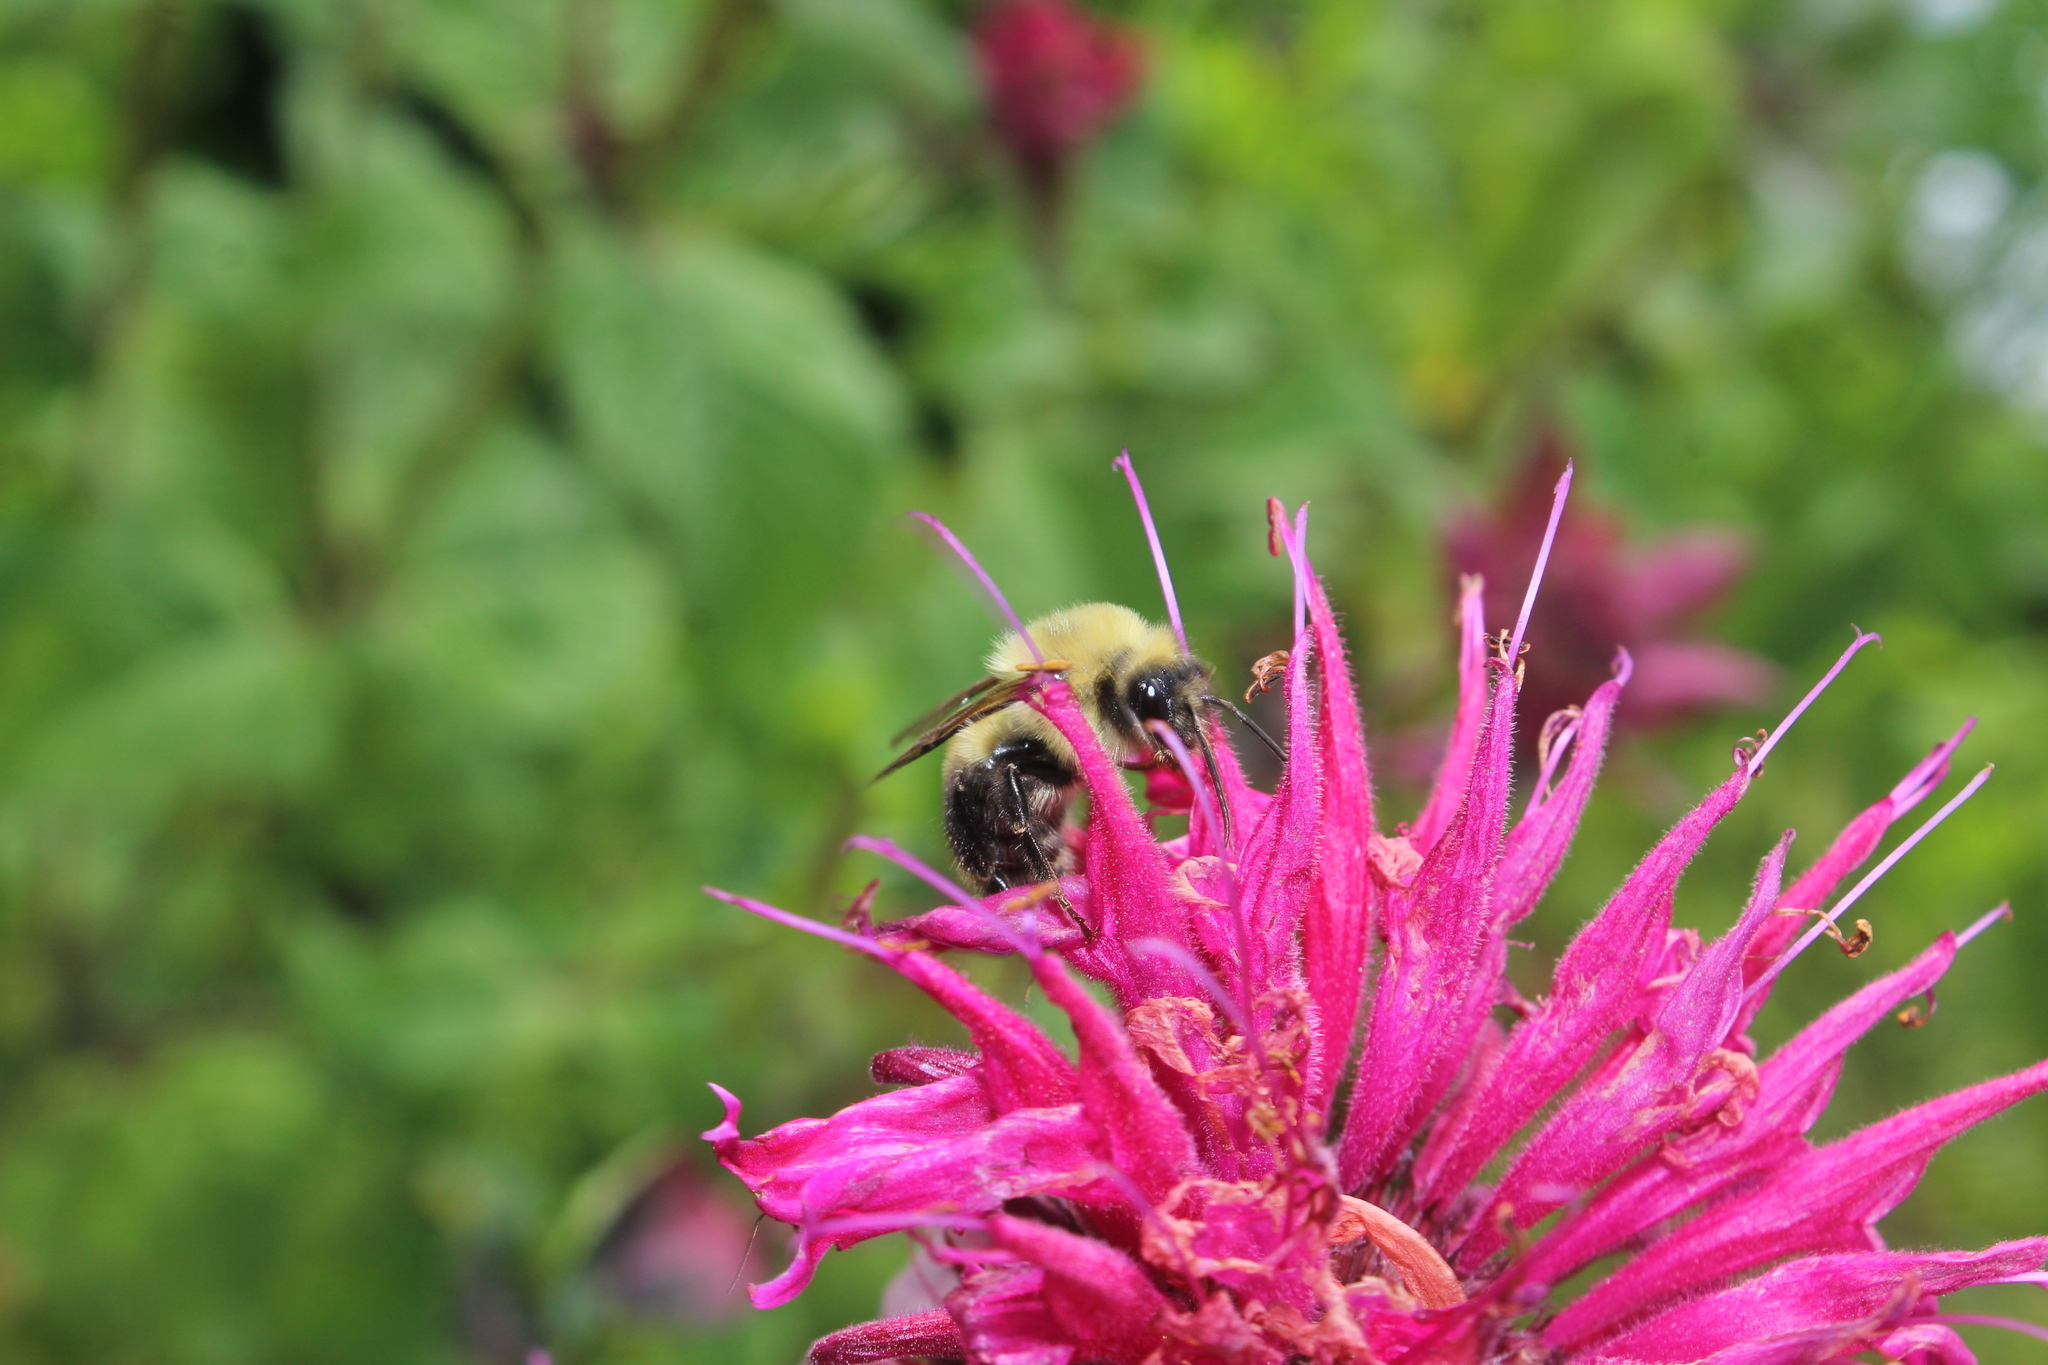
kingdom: Animalia
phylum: Arthropoda
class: Insecta
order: Hymenoptera
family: Apidae
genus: Bombus
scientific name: Bombus bimaculatus
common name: Two-spotted bumble bee
